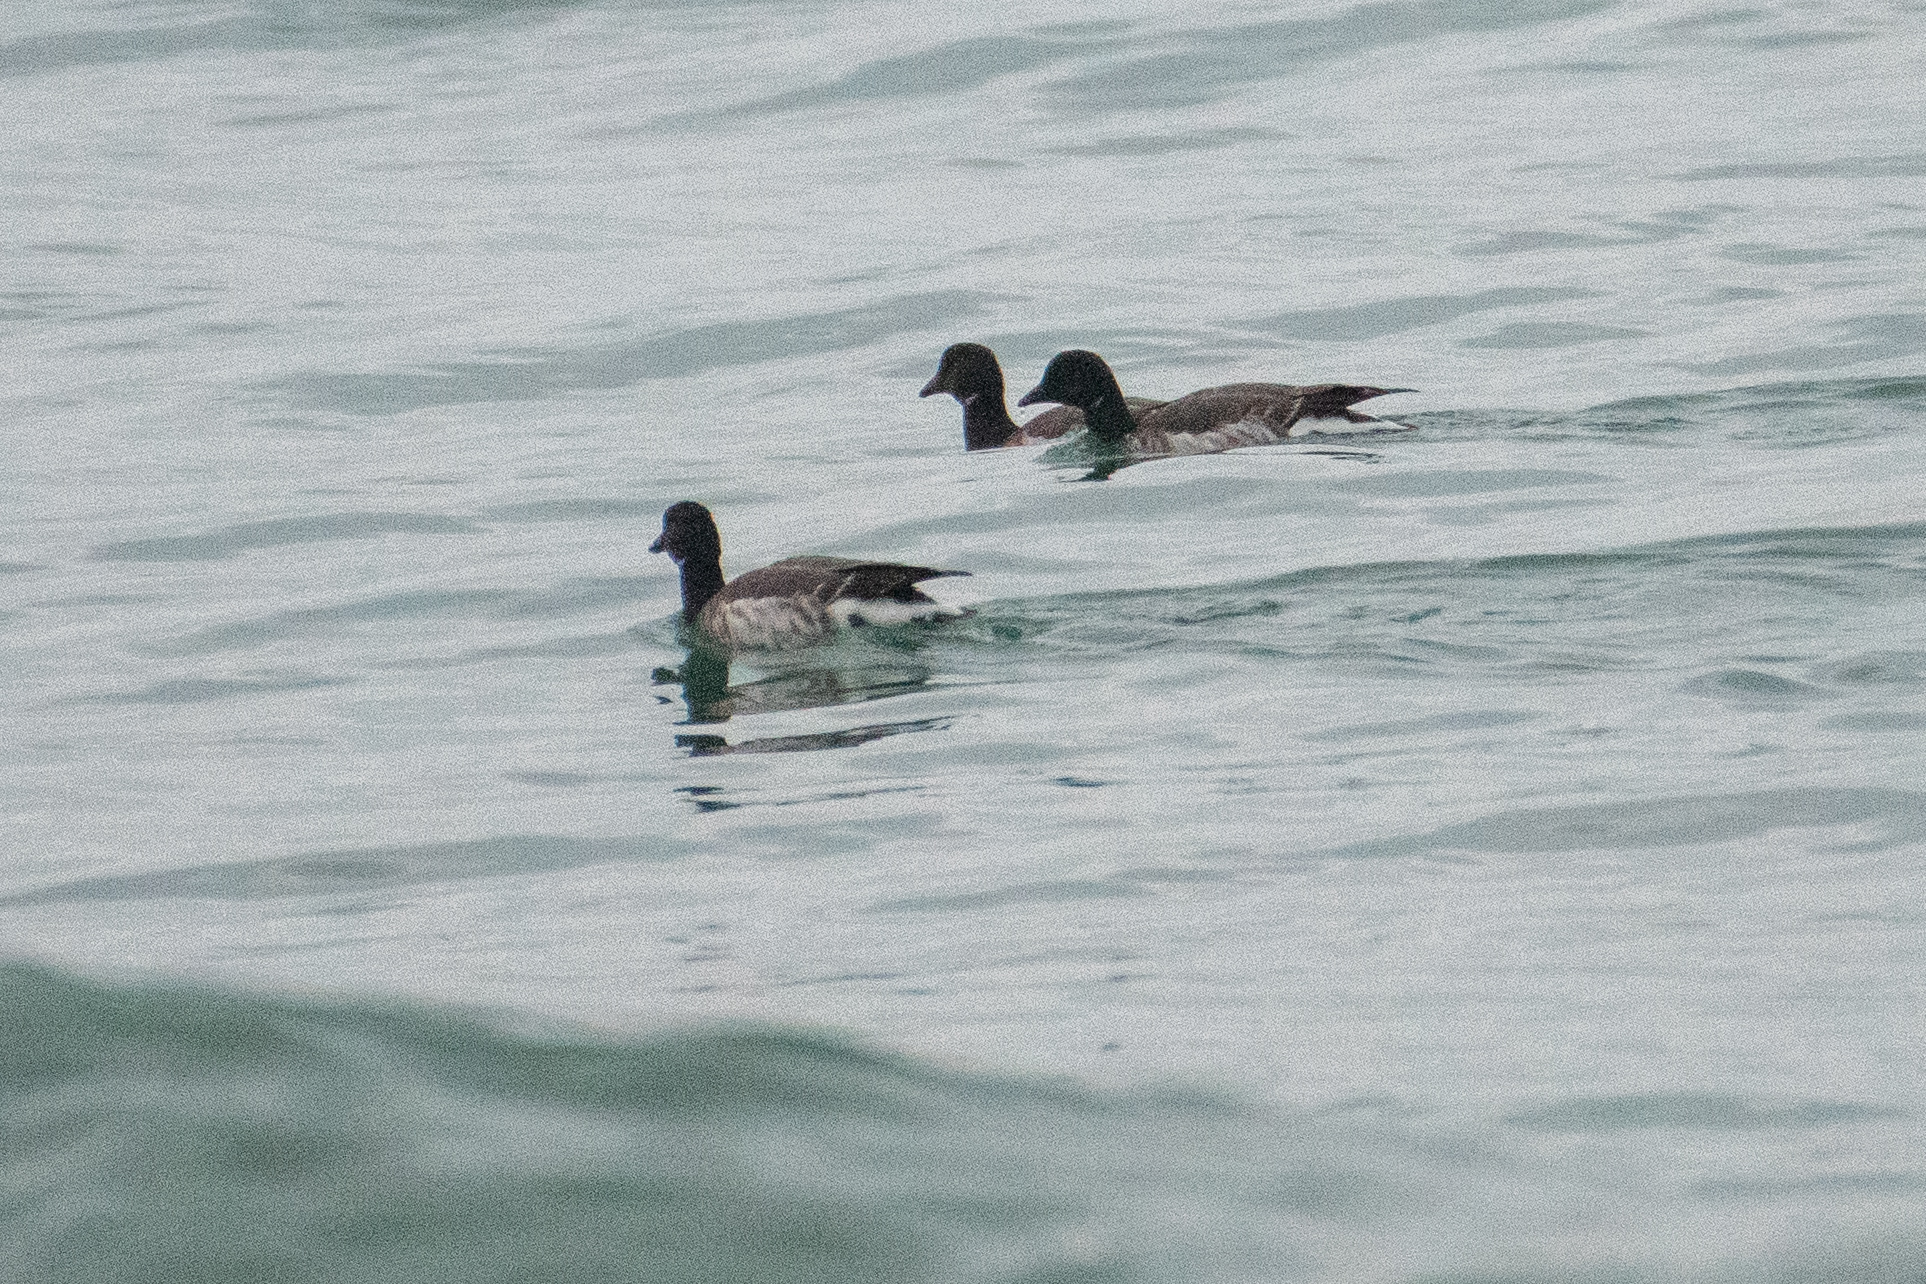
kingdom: Animalia
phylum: Chordata
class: Aves
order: Anseriformes
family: Anatidae
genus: Branta
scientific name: Branta bernicla
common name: Brant goose
